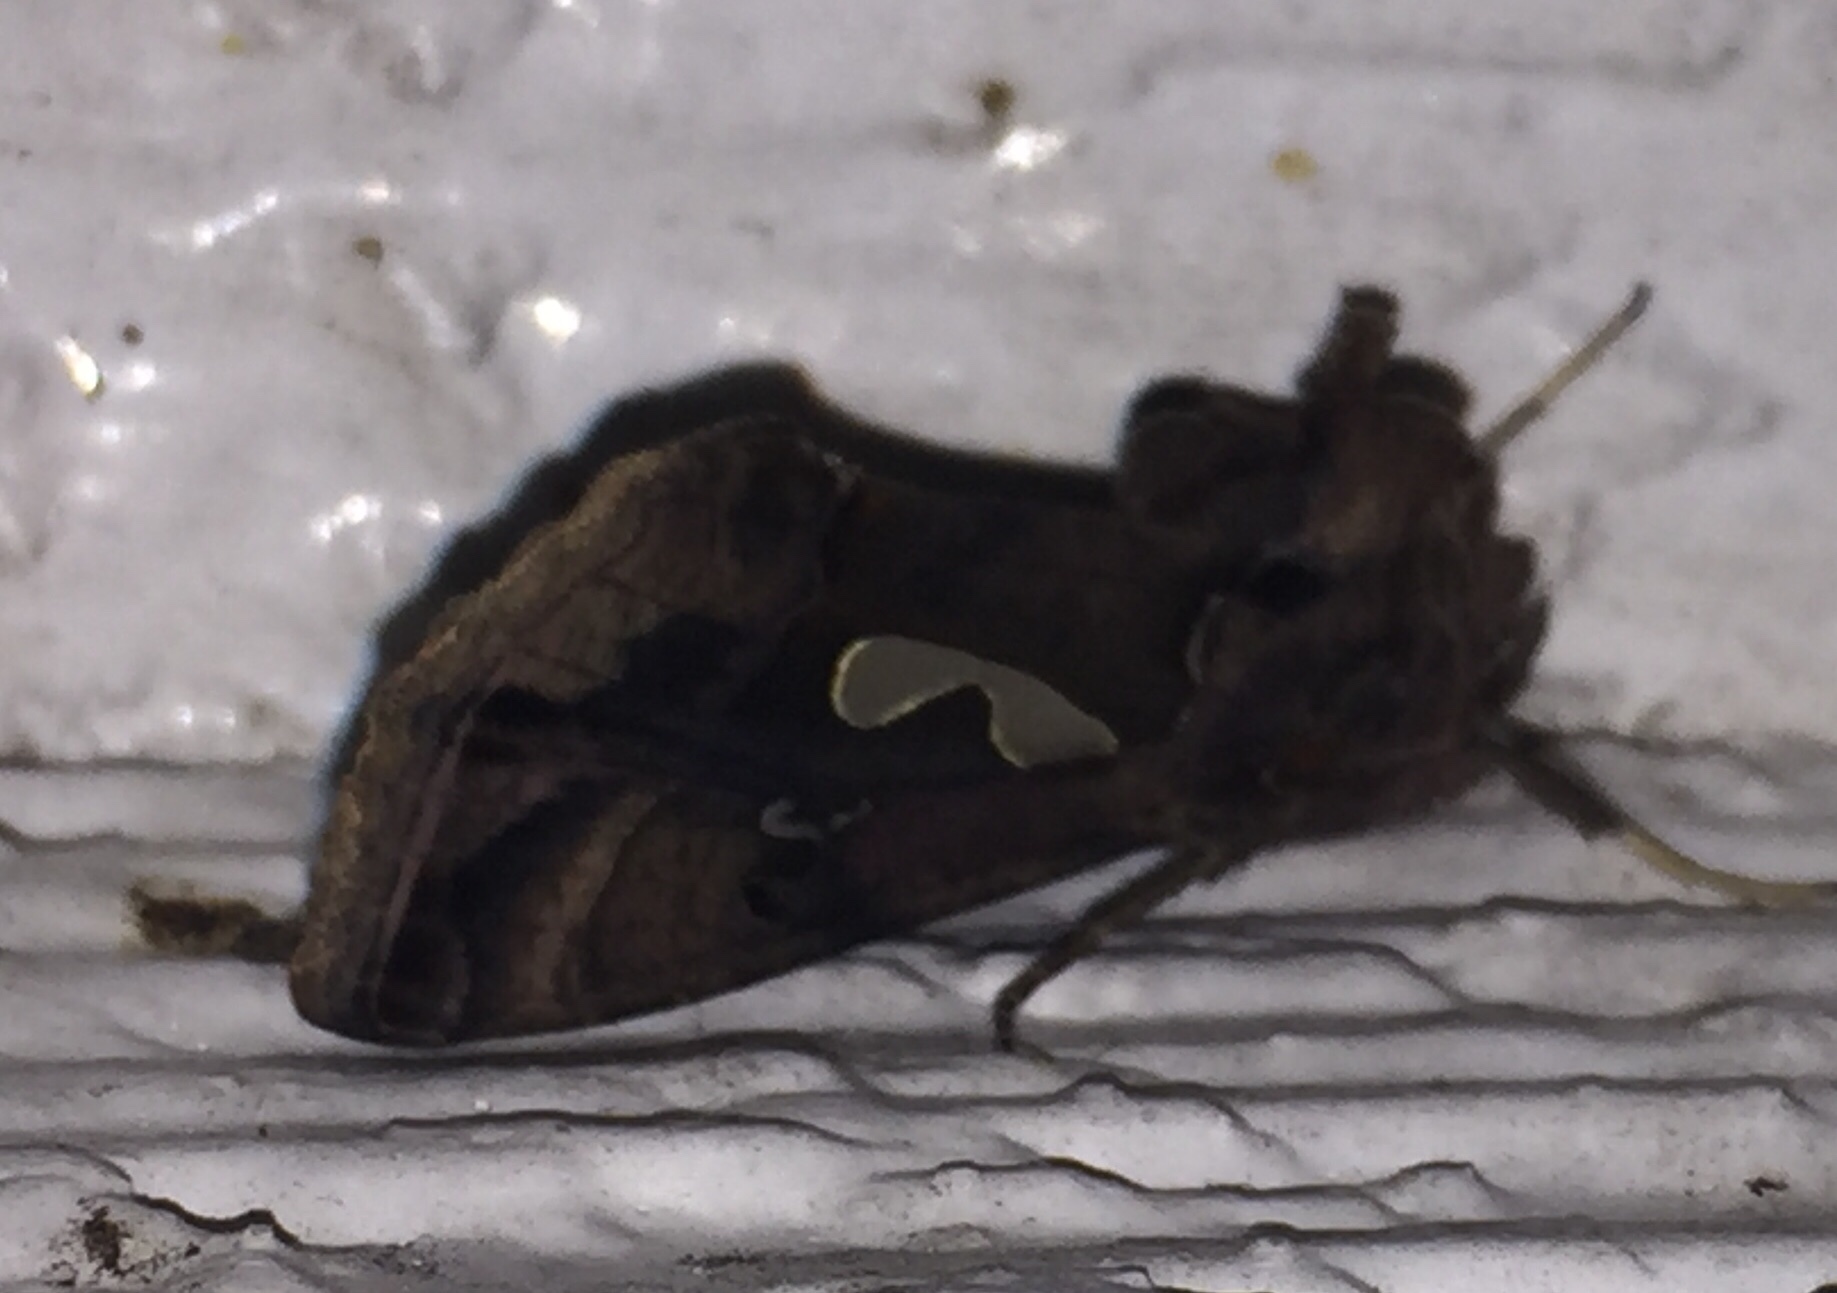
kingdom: Animalia
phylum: Arthropoda
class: Insecta
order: Lepidoptera
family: Noctuidae
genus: Megalographa
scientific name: Megalographa biloba
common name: Cutworm
